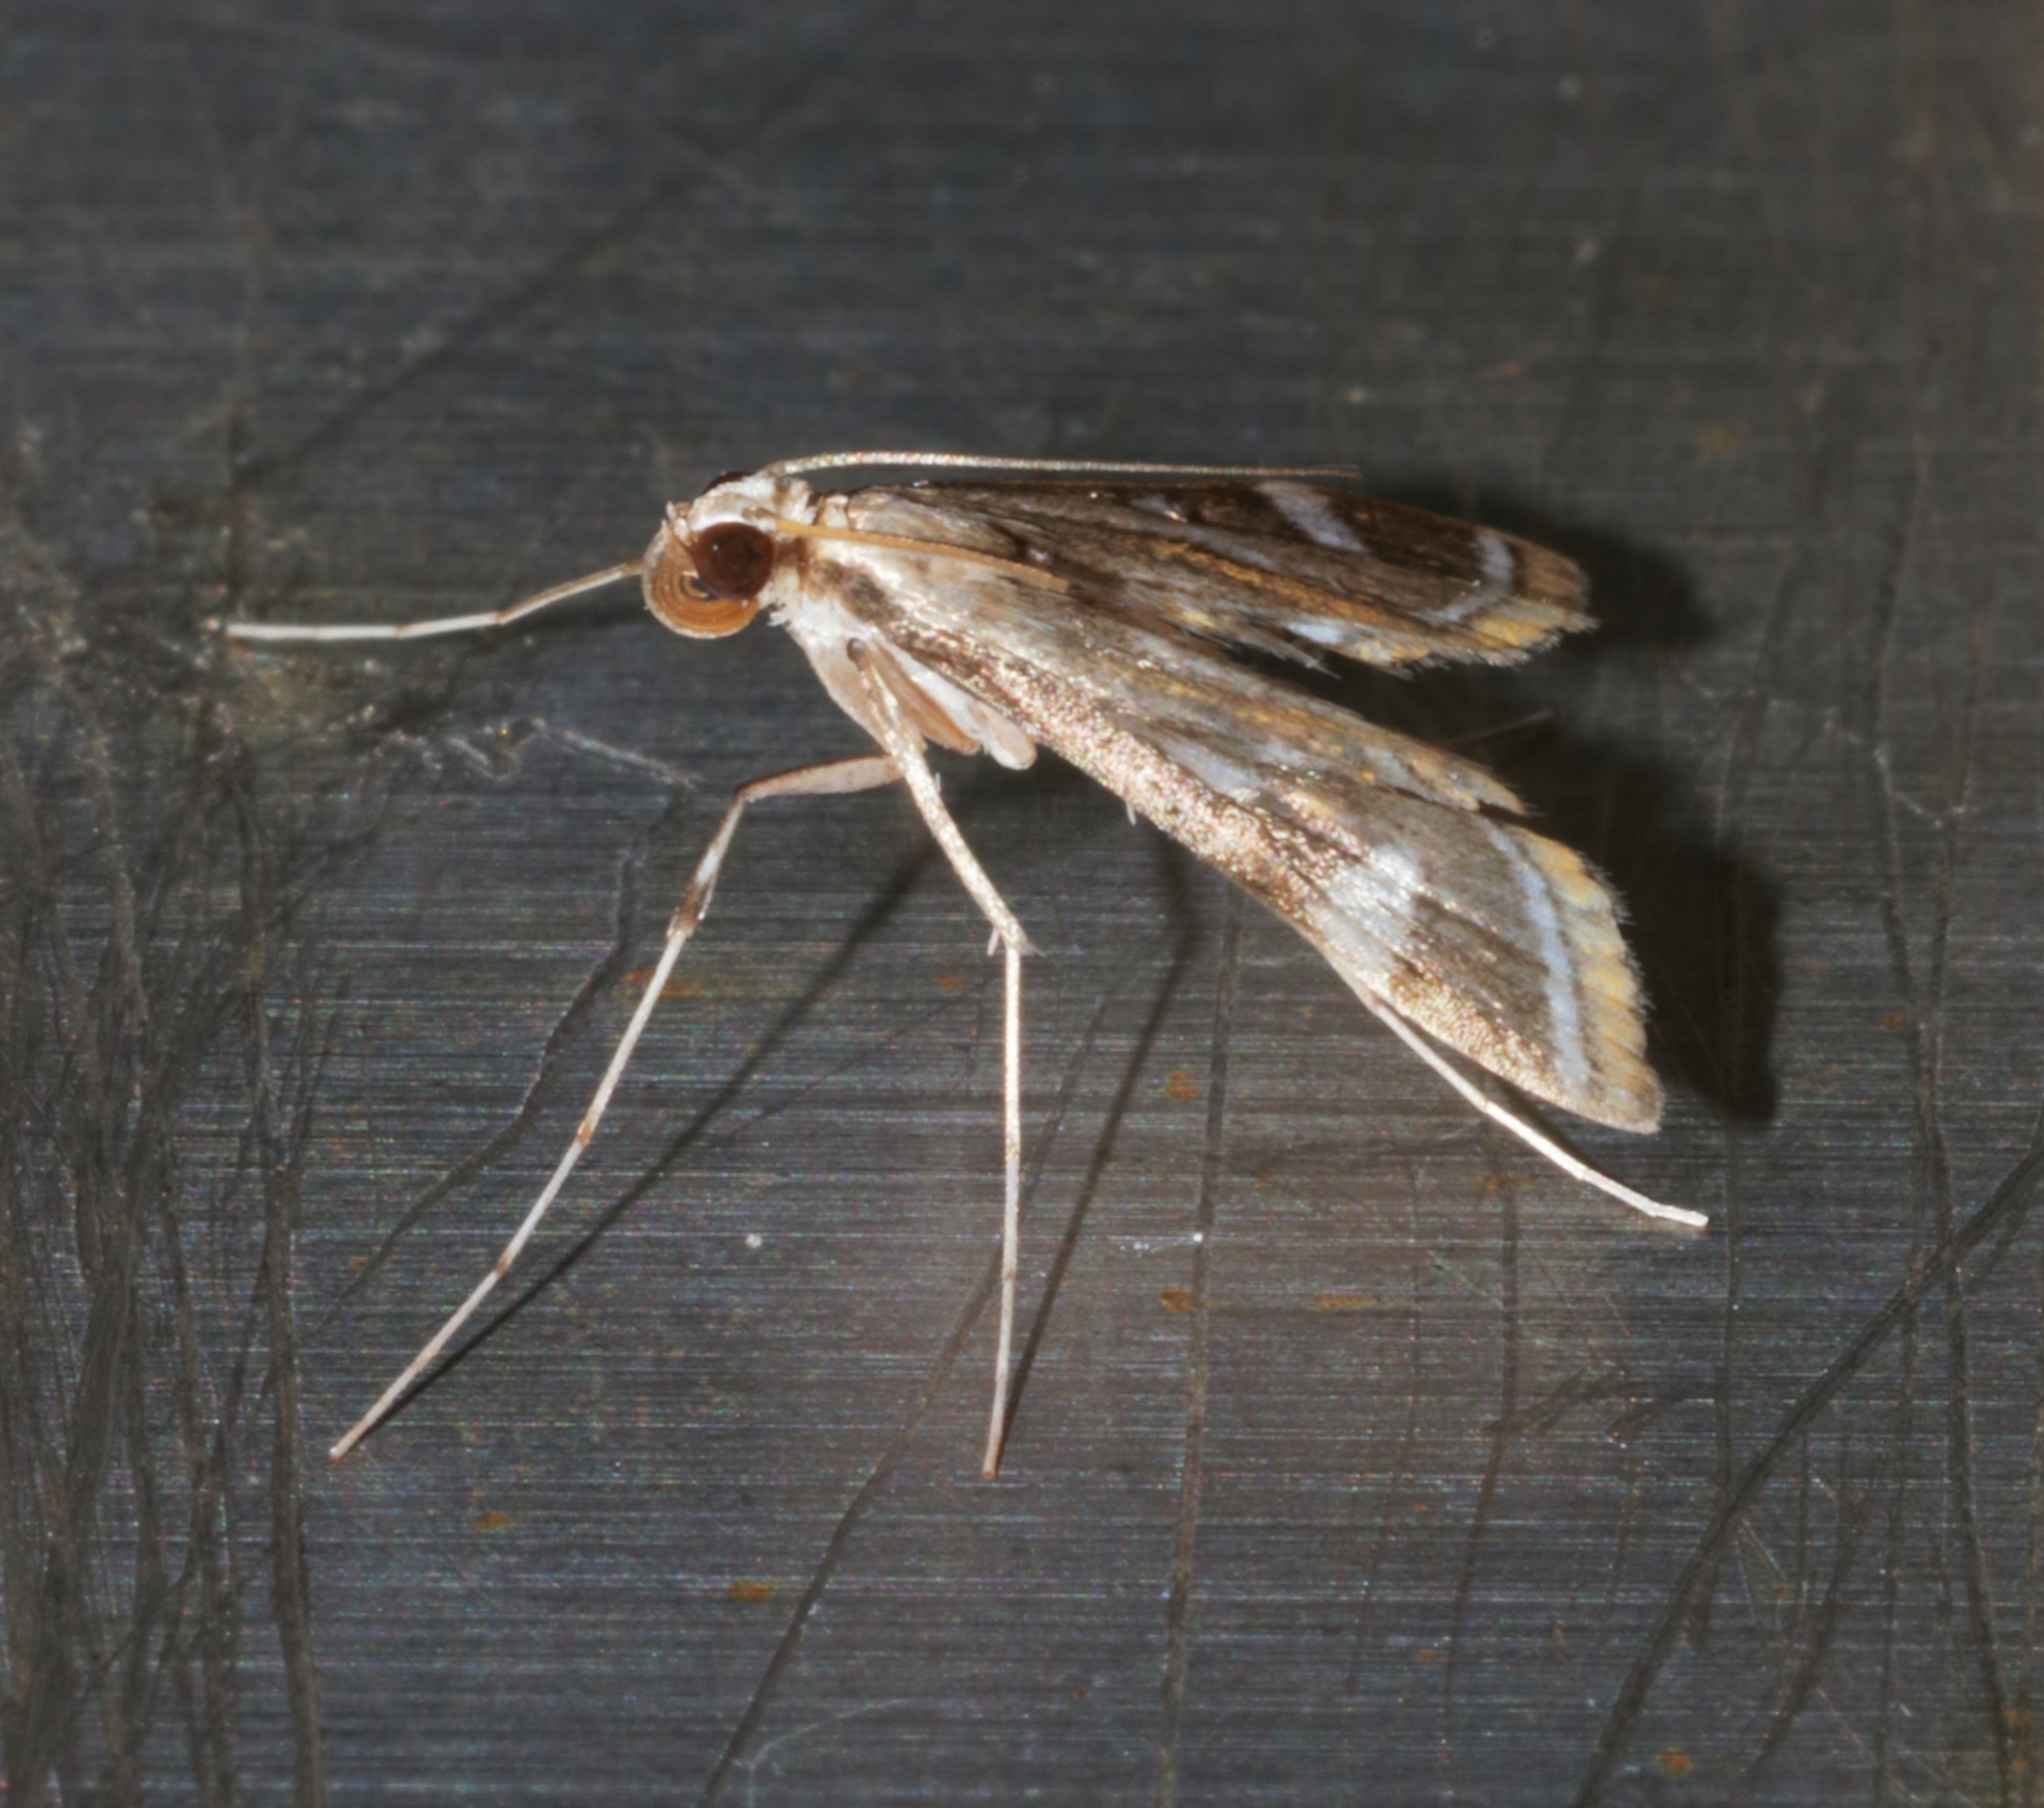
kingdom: Animalia
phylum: Arthropoda
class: Insecta
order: Lepidoptera
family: Crambidae
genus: Strepsinoma
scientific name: Strepsinoma croesusalis
